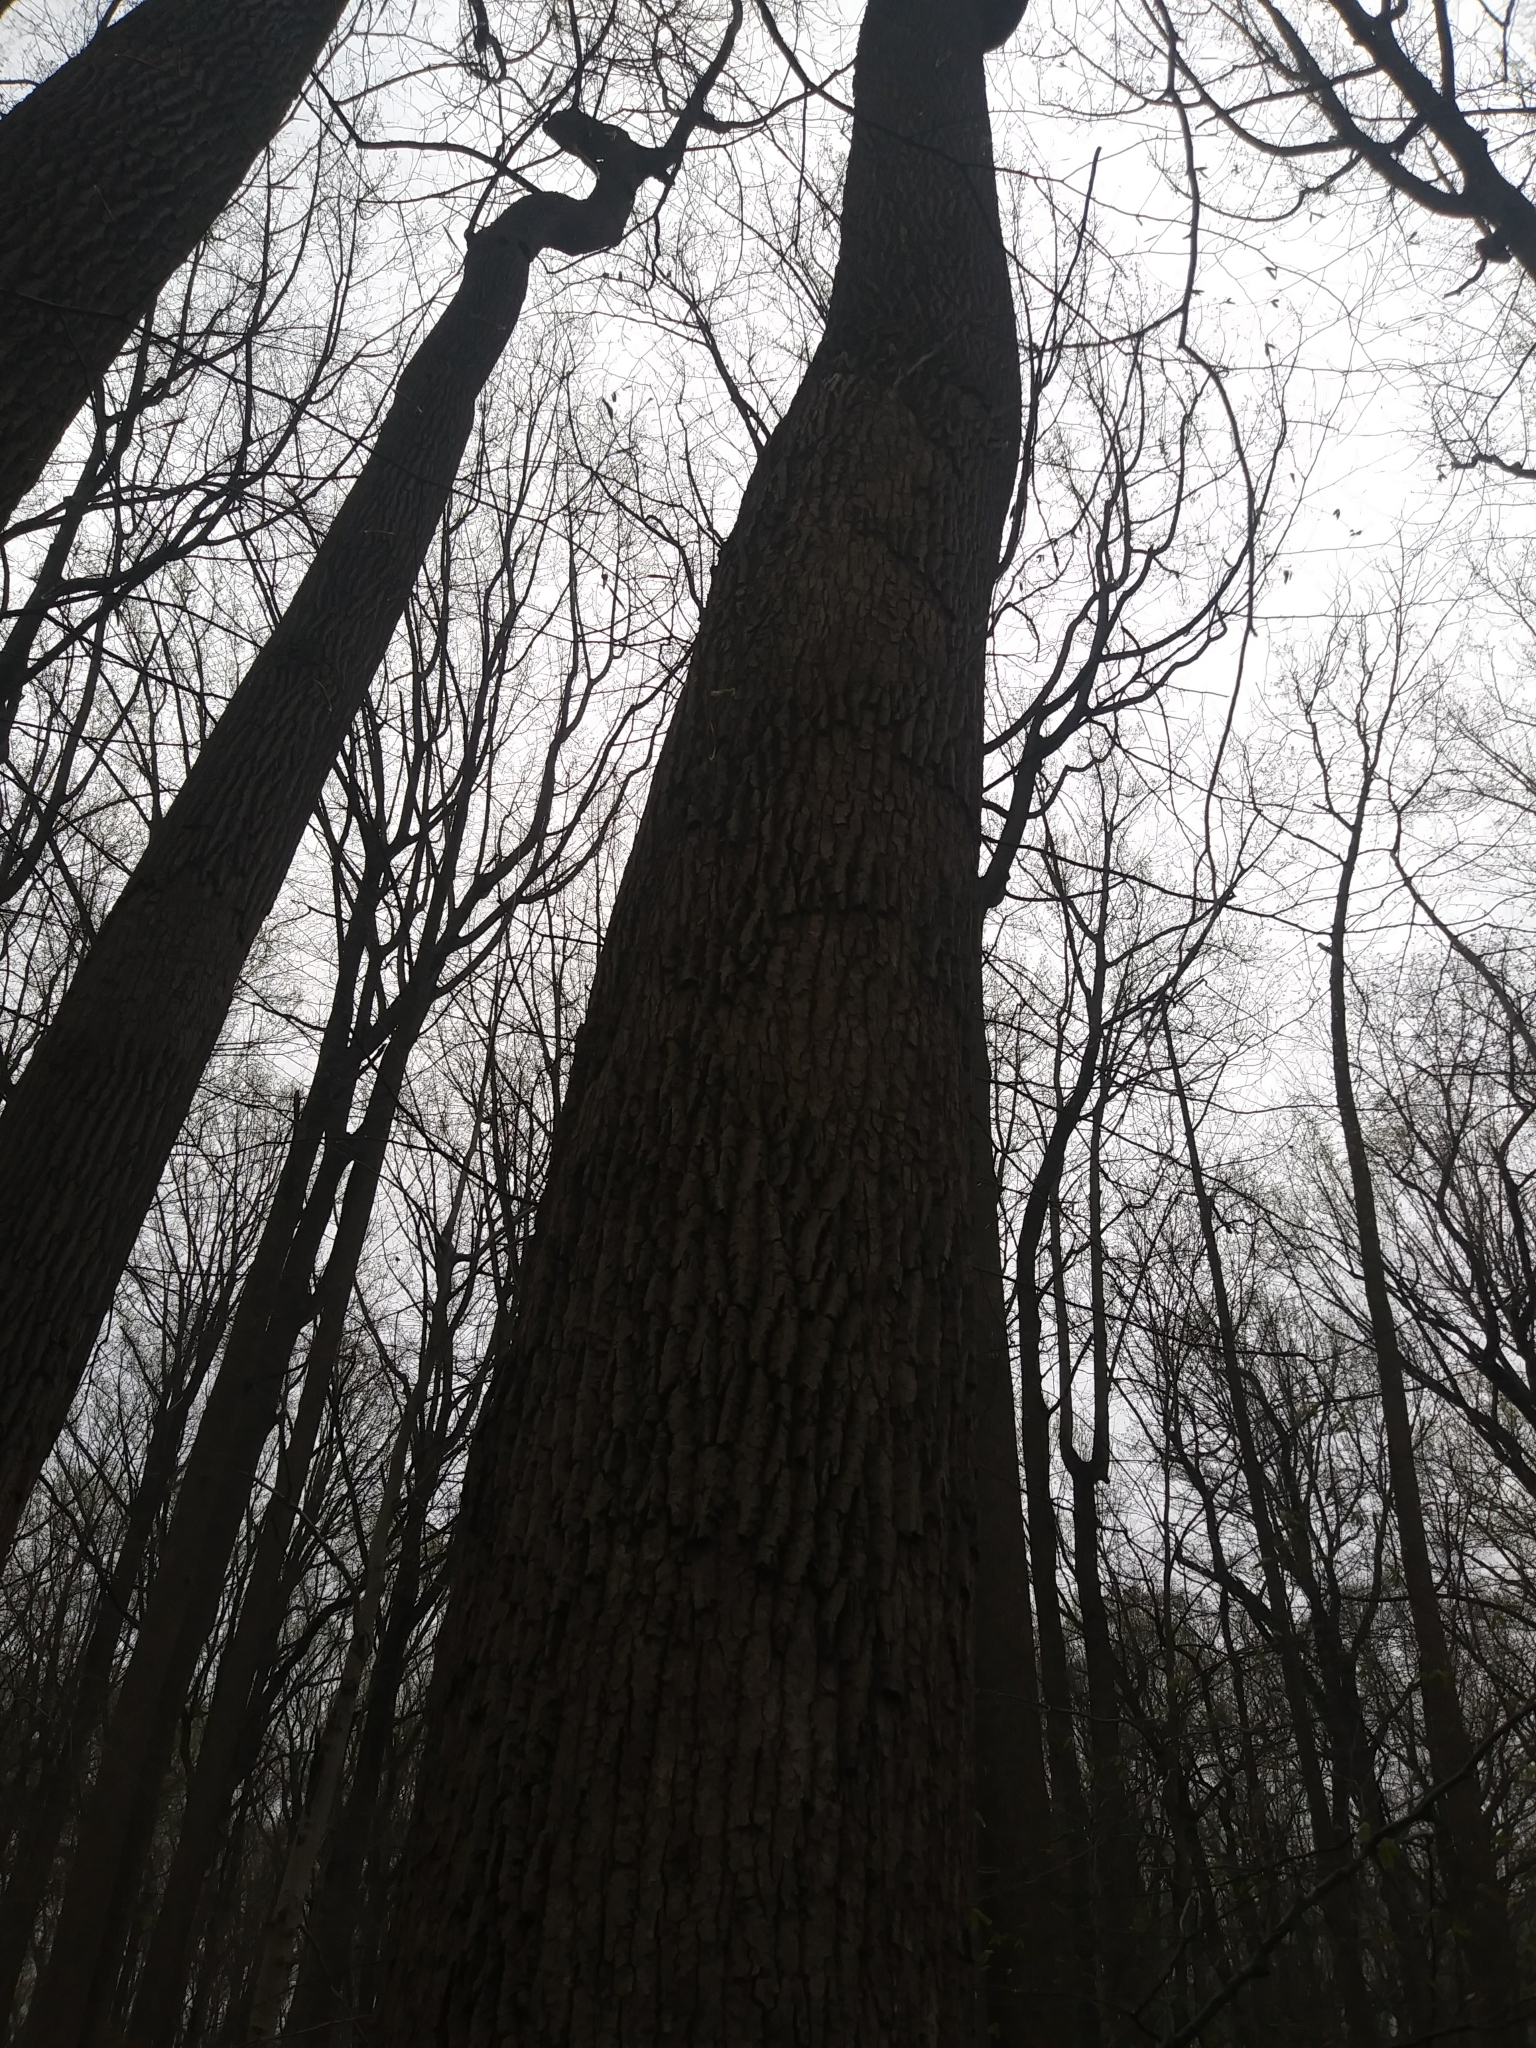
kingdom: Plantae
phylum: Tracheophyta
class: Magnoliopsida
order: Magnoliales
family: Magnoliaceae
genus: Liriodendron
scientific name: Liriodendron tulipifera
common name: Tulip tree
